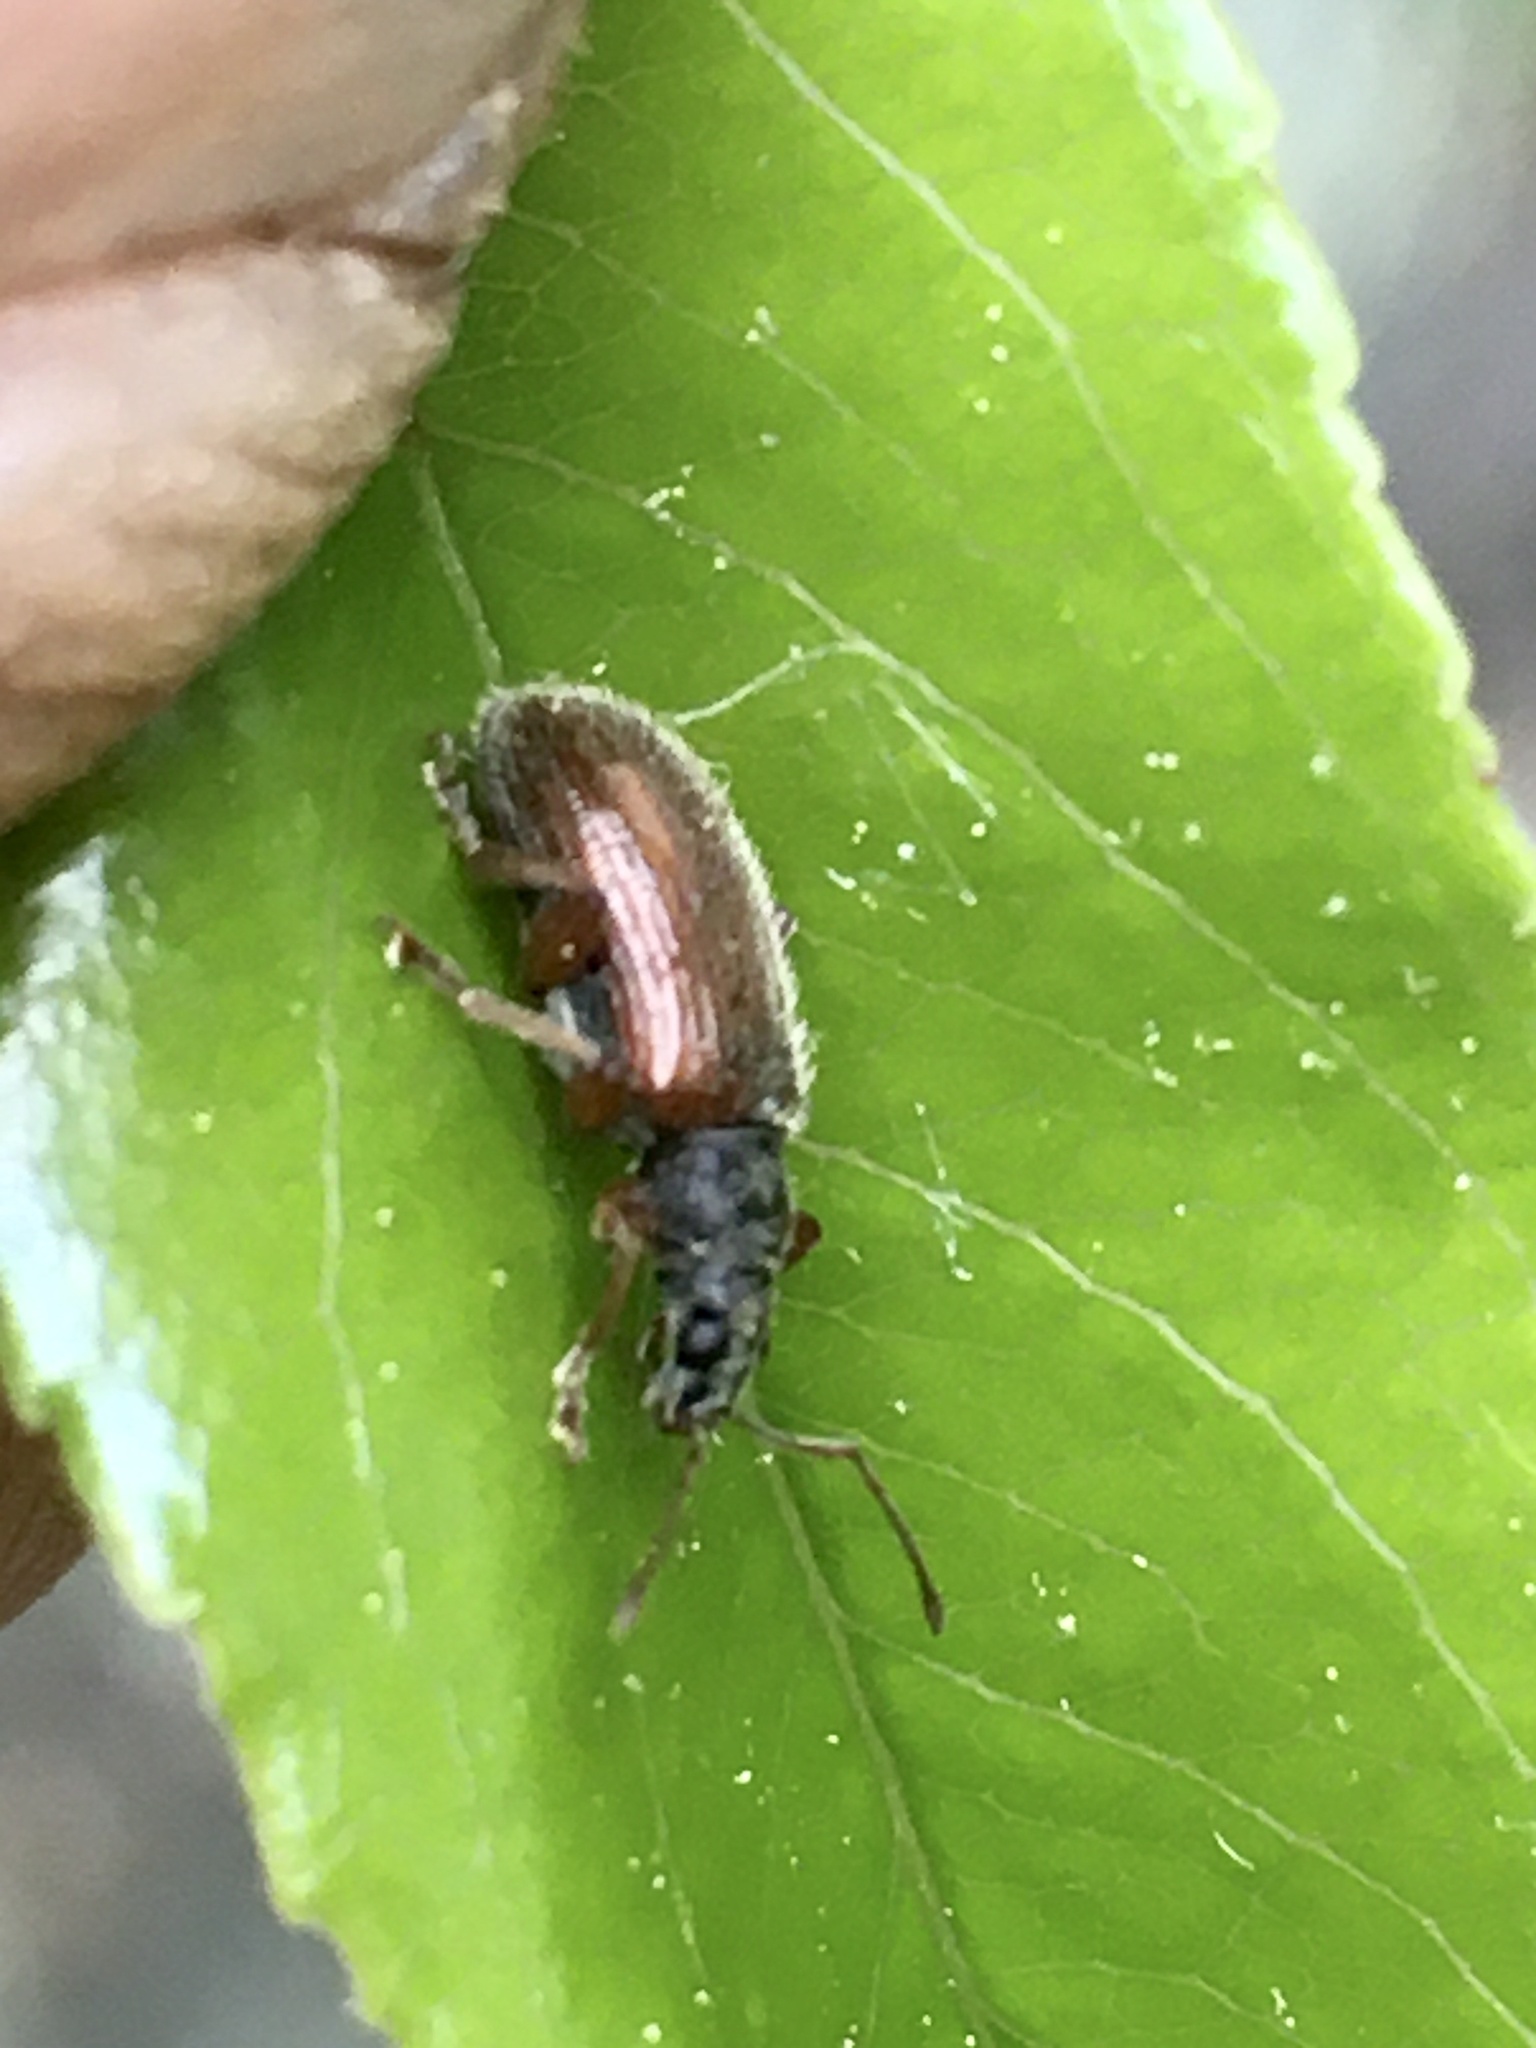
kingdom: Animalia
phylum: Arthropoda
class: Insecta
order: Coleoptera
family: Curculionidae
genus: Phyllobius
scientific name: Phyllobius oblongus
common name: Brown leaf weevil
